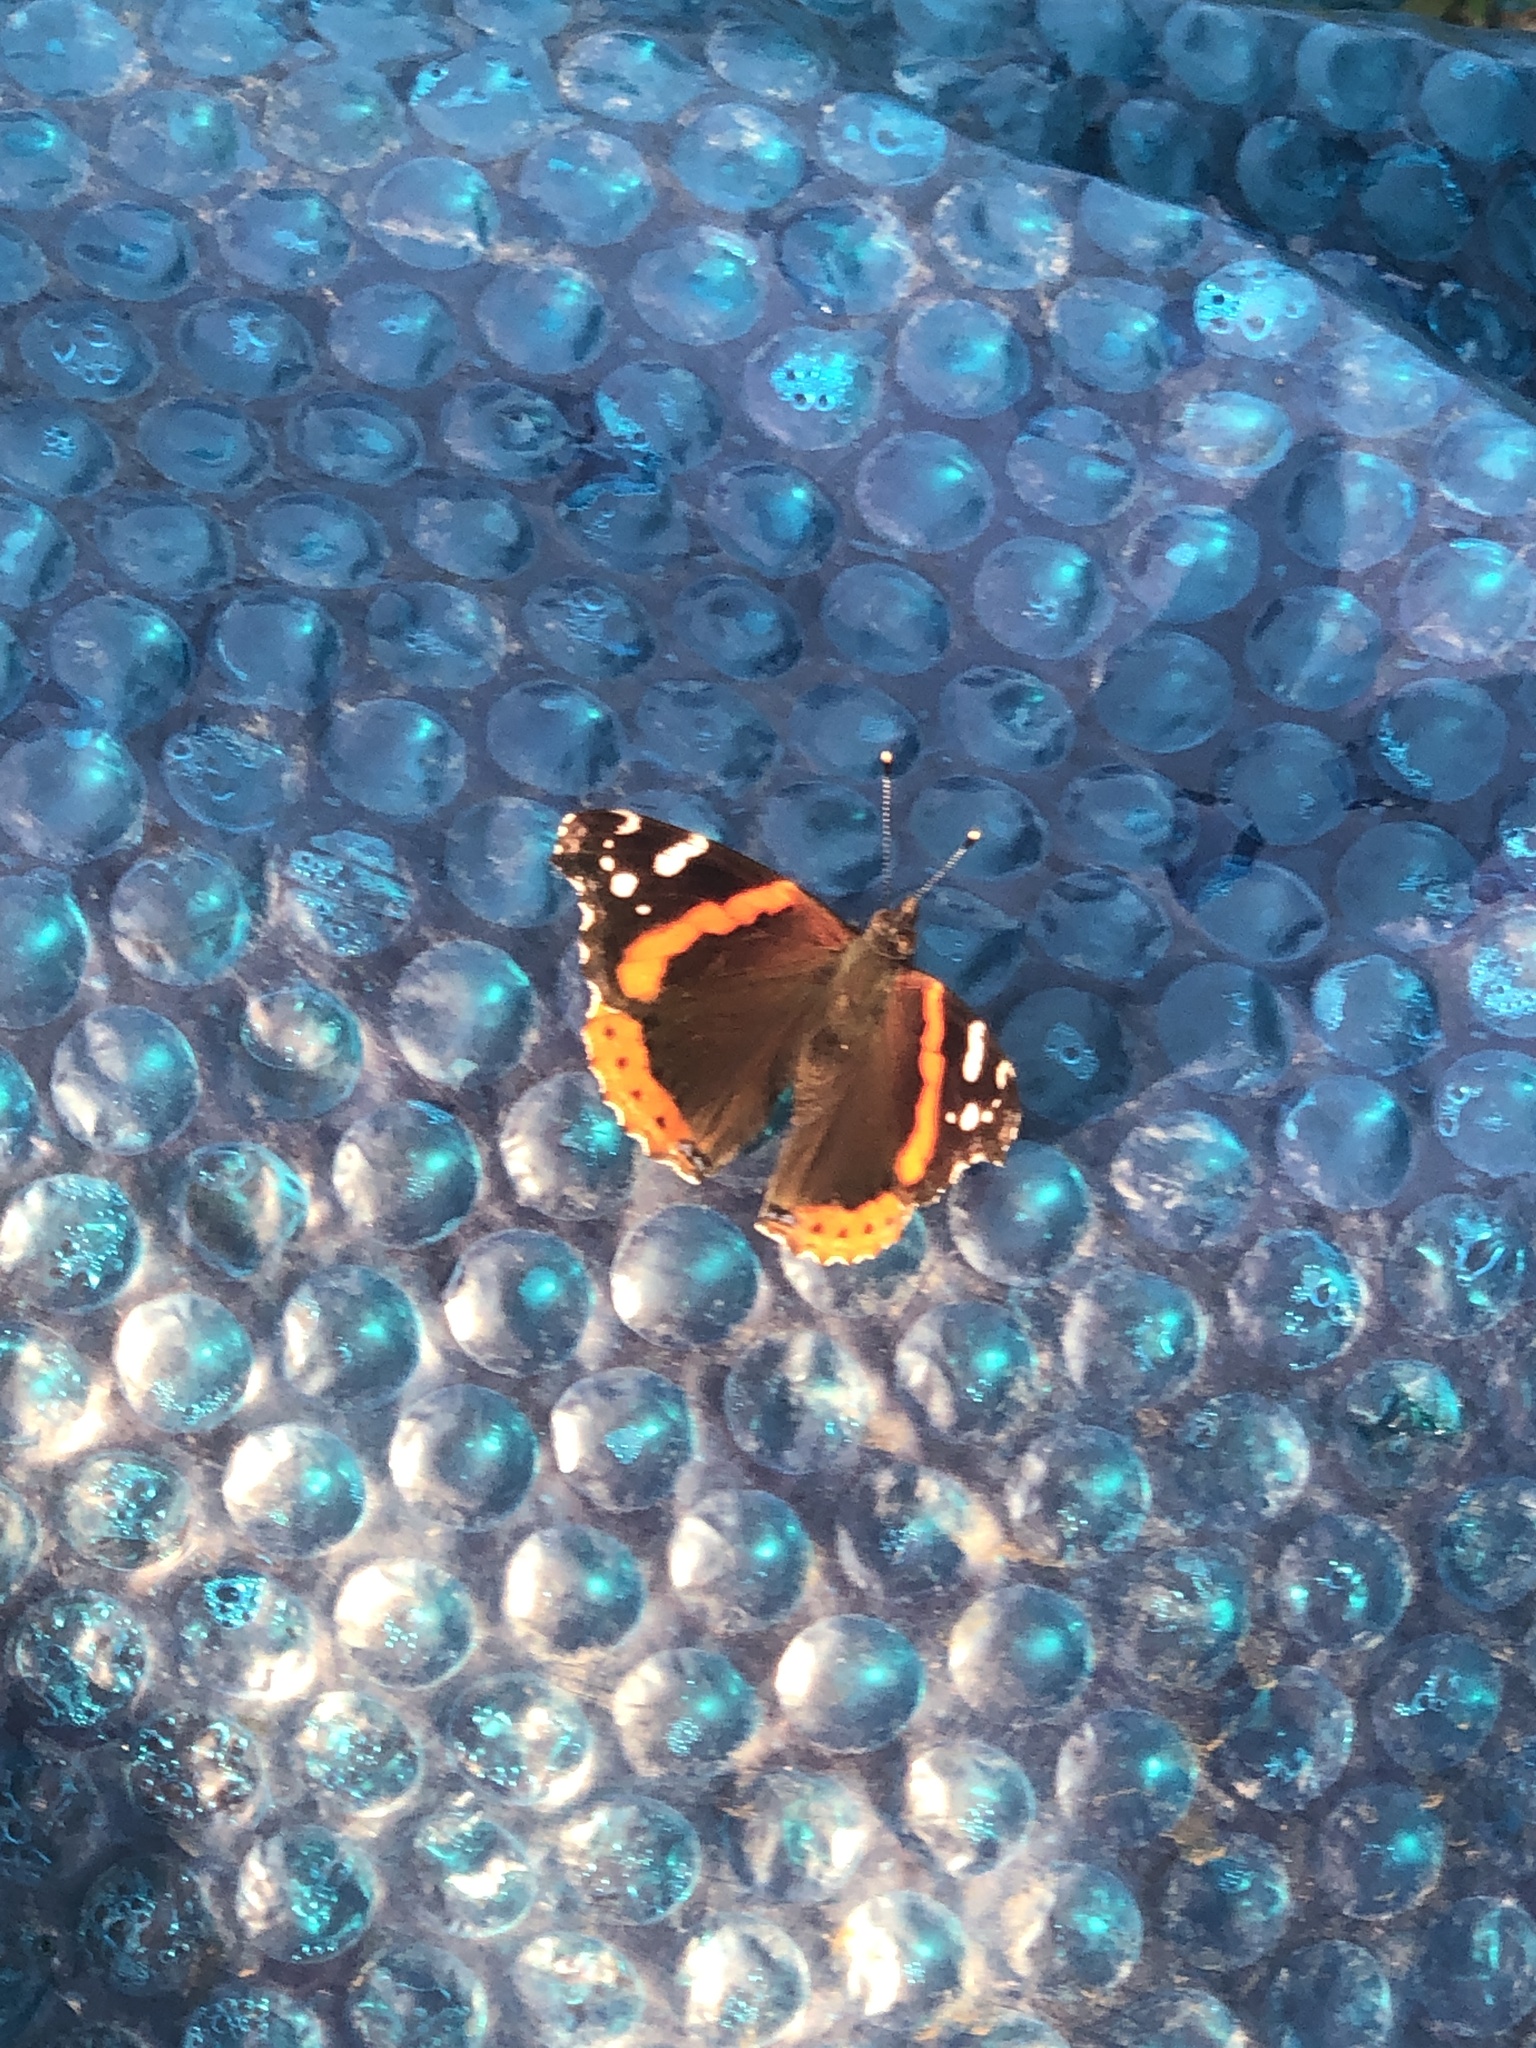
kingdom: Animalia
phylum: Arthropoda
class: Insecta
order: Lepidoptera
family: Nymphalidae
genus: Vanessa
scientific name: Vanessa atalanta
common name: Red admiral
